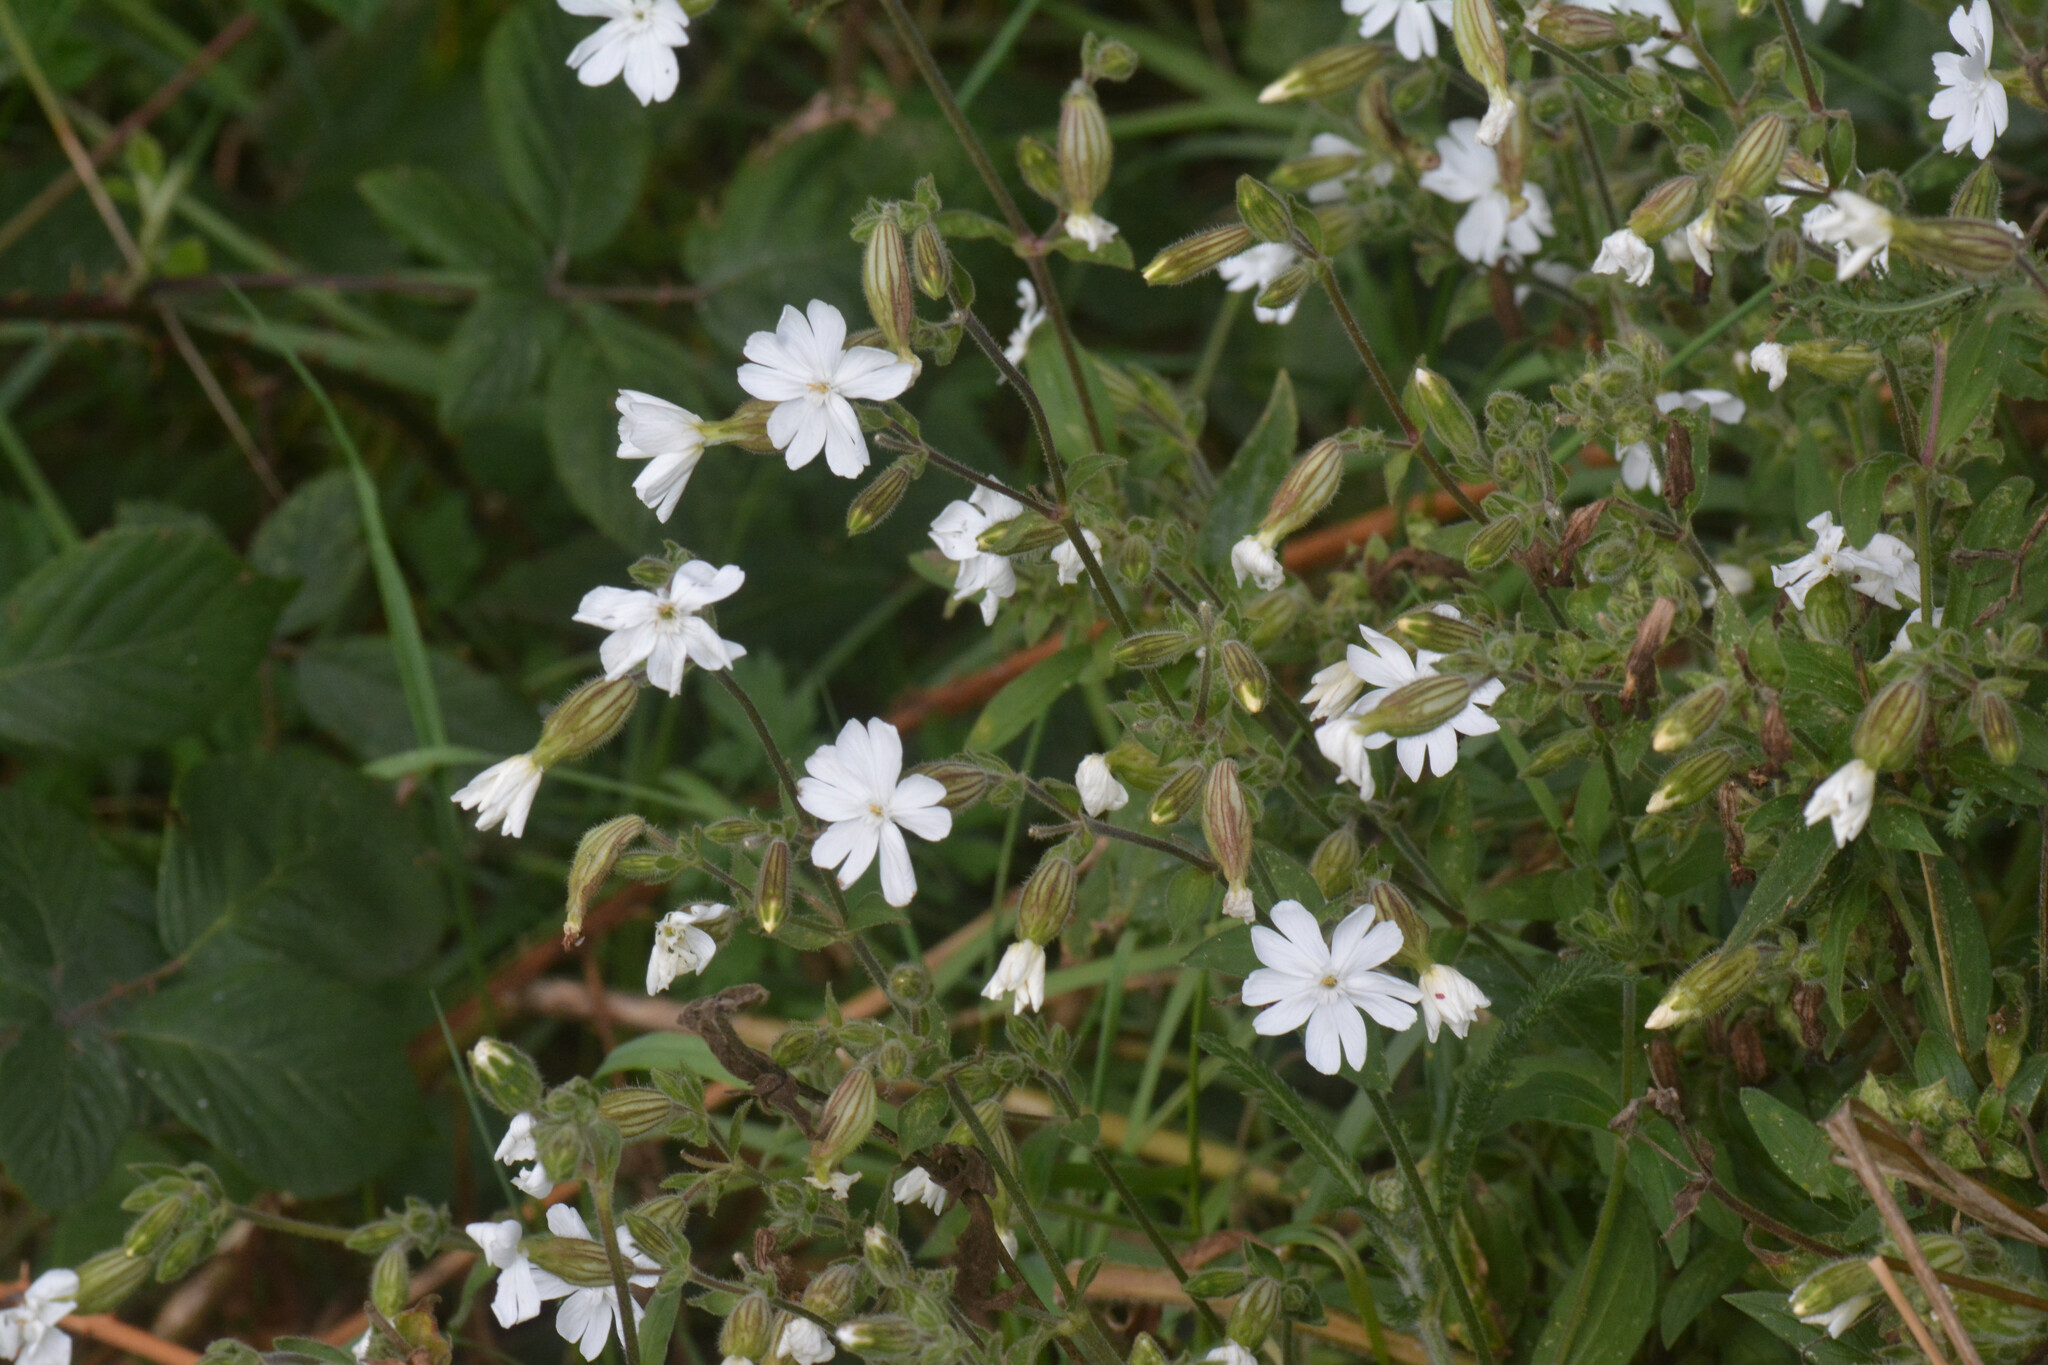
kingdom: Plantae
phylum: Tracheophyta
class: Magnoliopsida
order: Caryophyllales
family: Caryophyllaceae
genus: Silene
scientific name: Silene latifolia
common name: White campion
